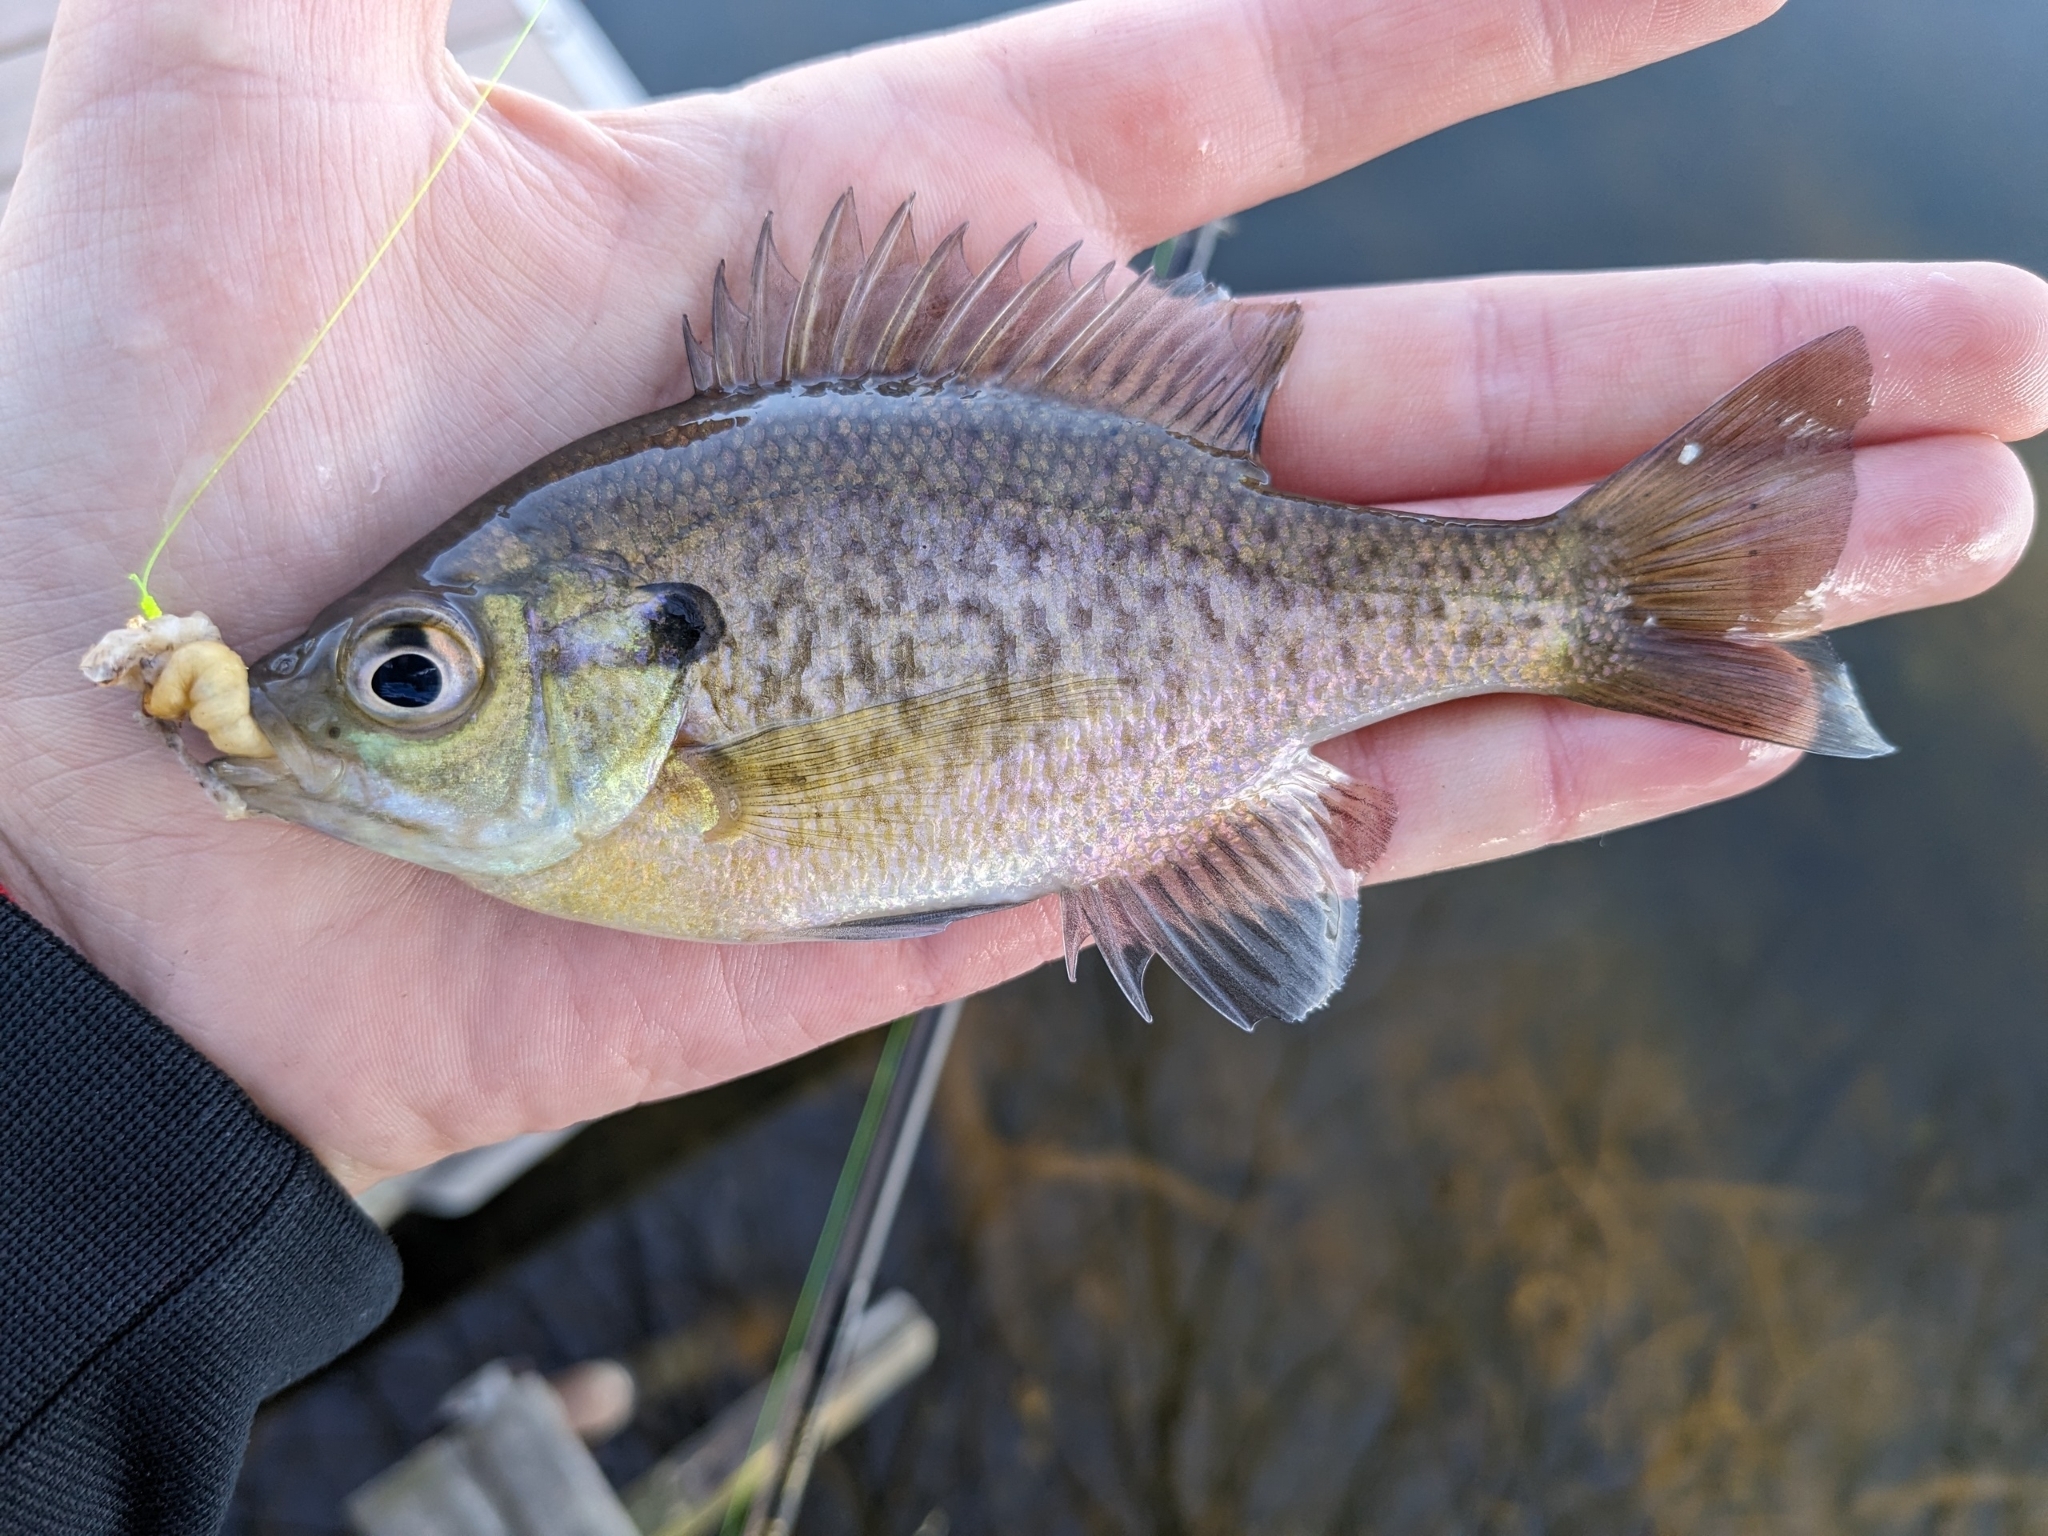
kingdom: Animalia
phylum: Chordata
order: Perciformes
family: Centrarchidae
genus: Lepomis
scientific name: Lepomis macrochirus
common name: Bluegill
